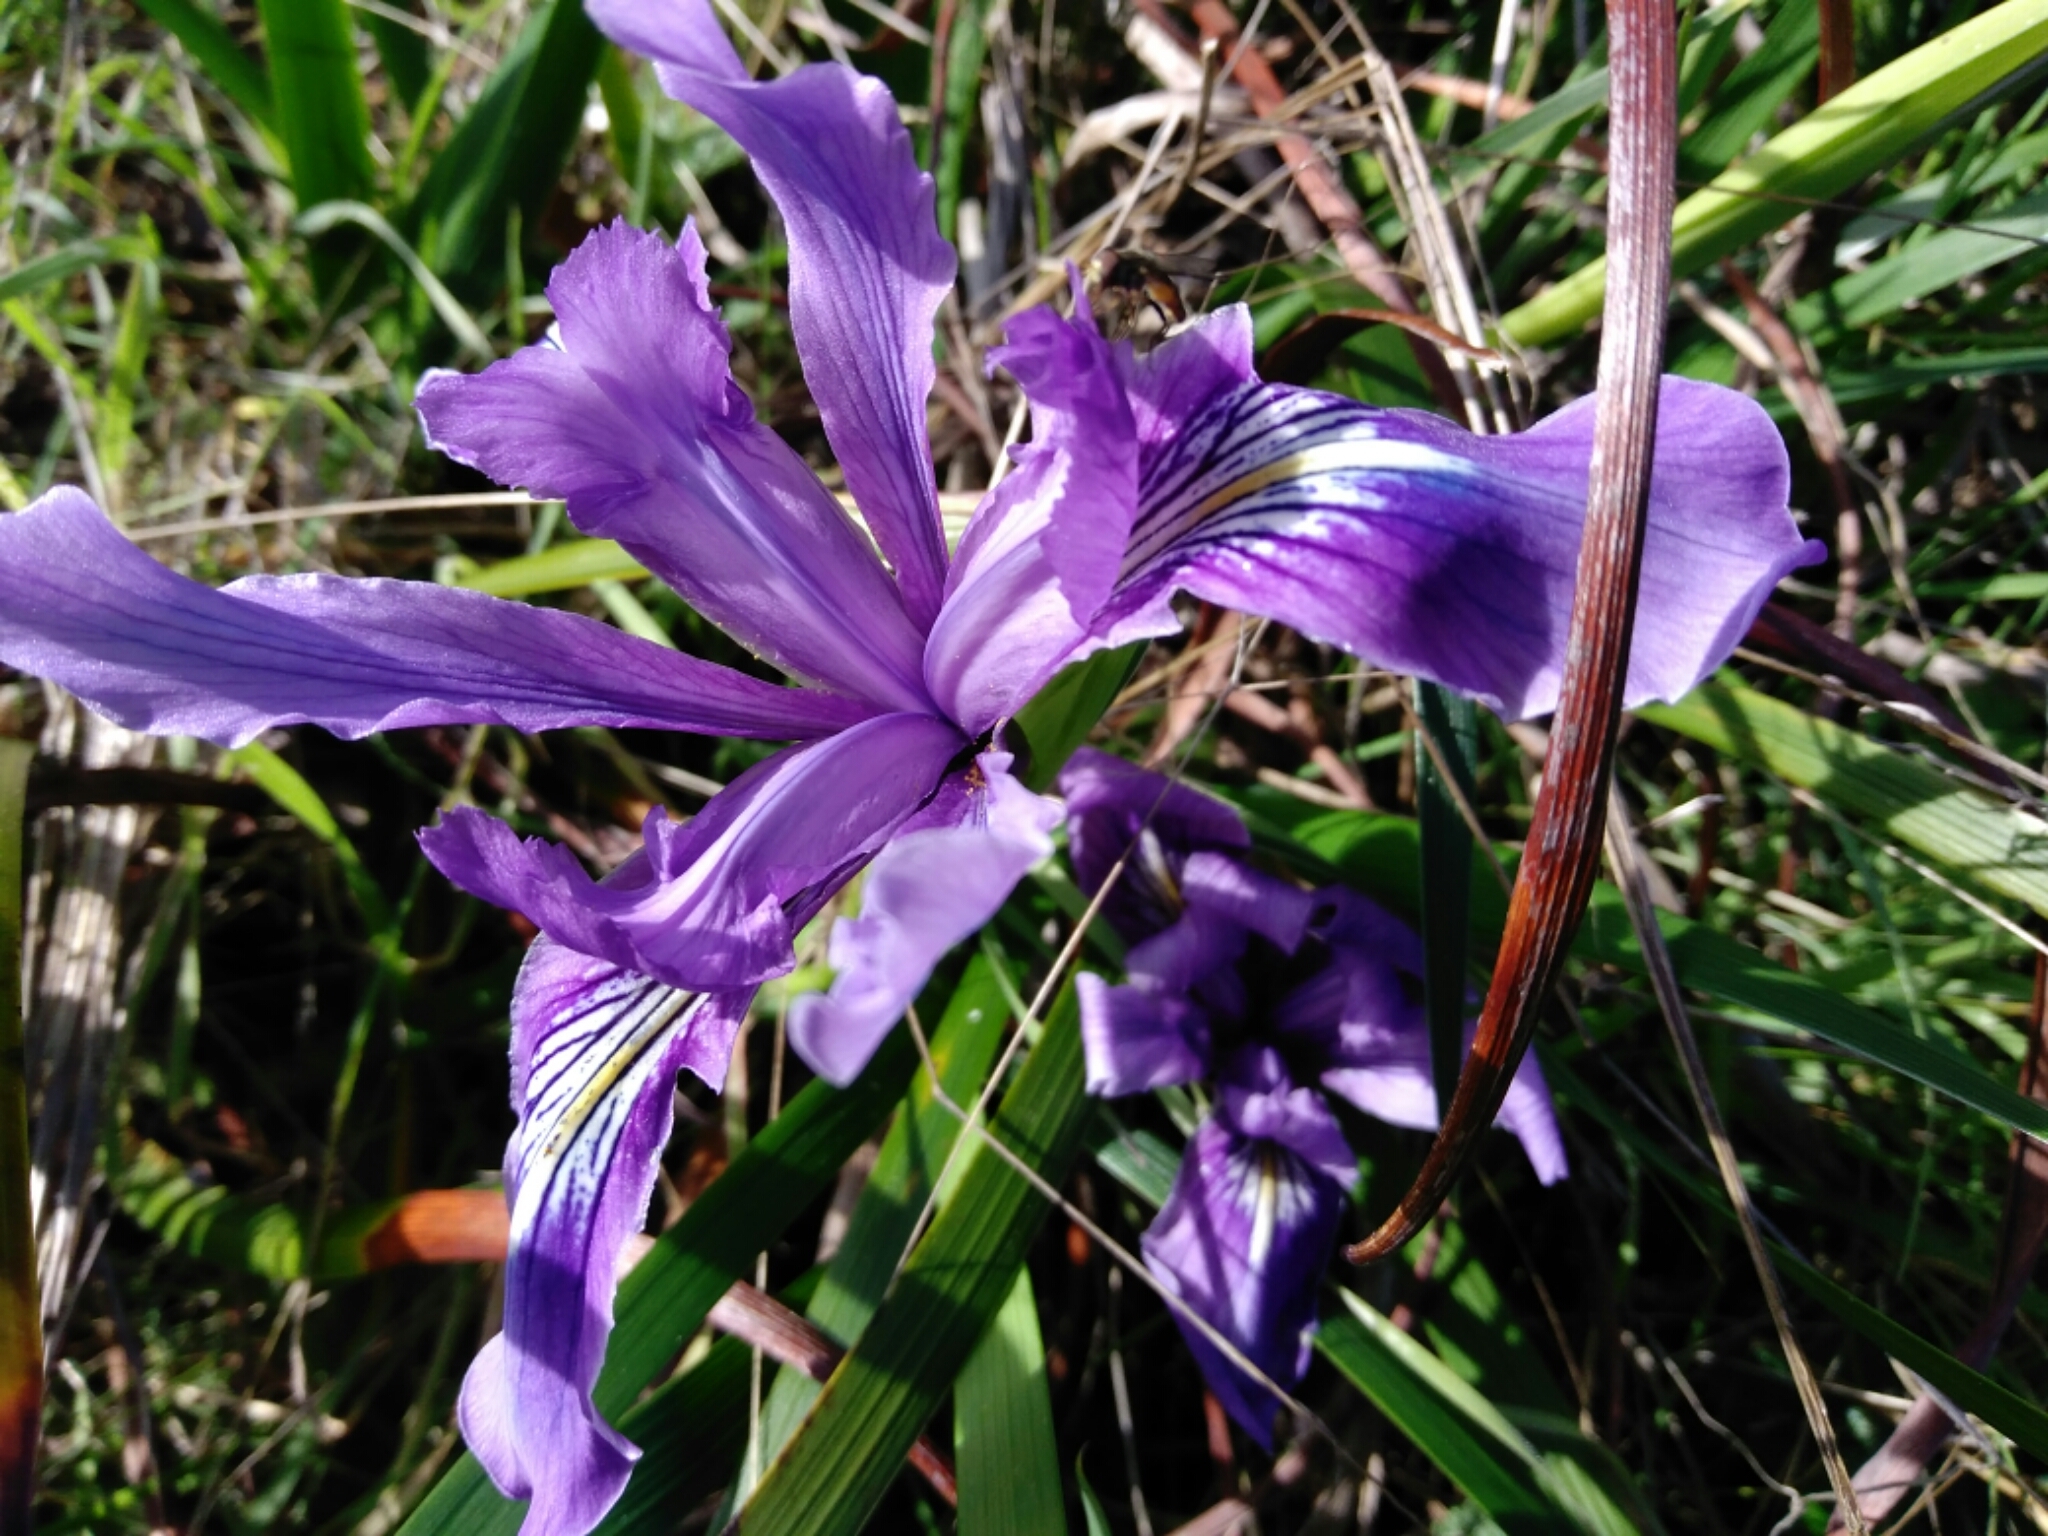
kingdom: Plantae
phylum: Tracheophyta
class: Liliopsida
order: Asparagales
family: Iridaceae
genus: Iris
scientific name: Iris douglasiana
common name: Marin iris
